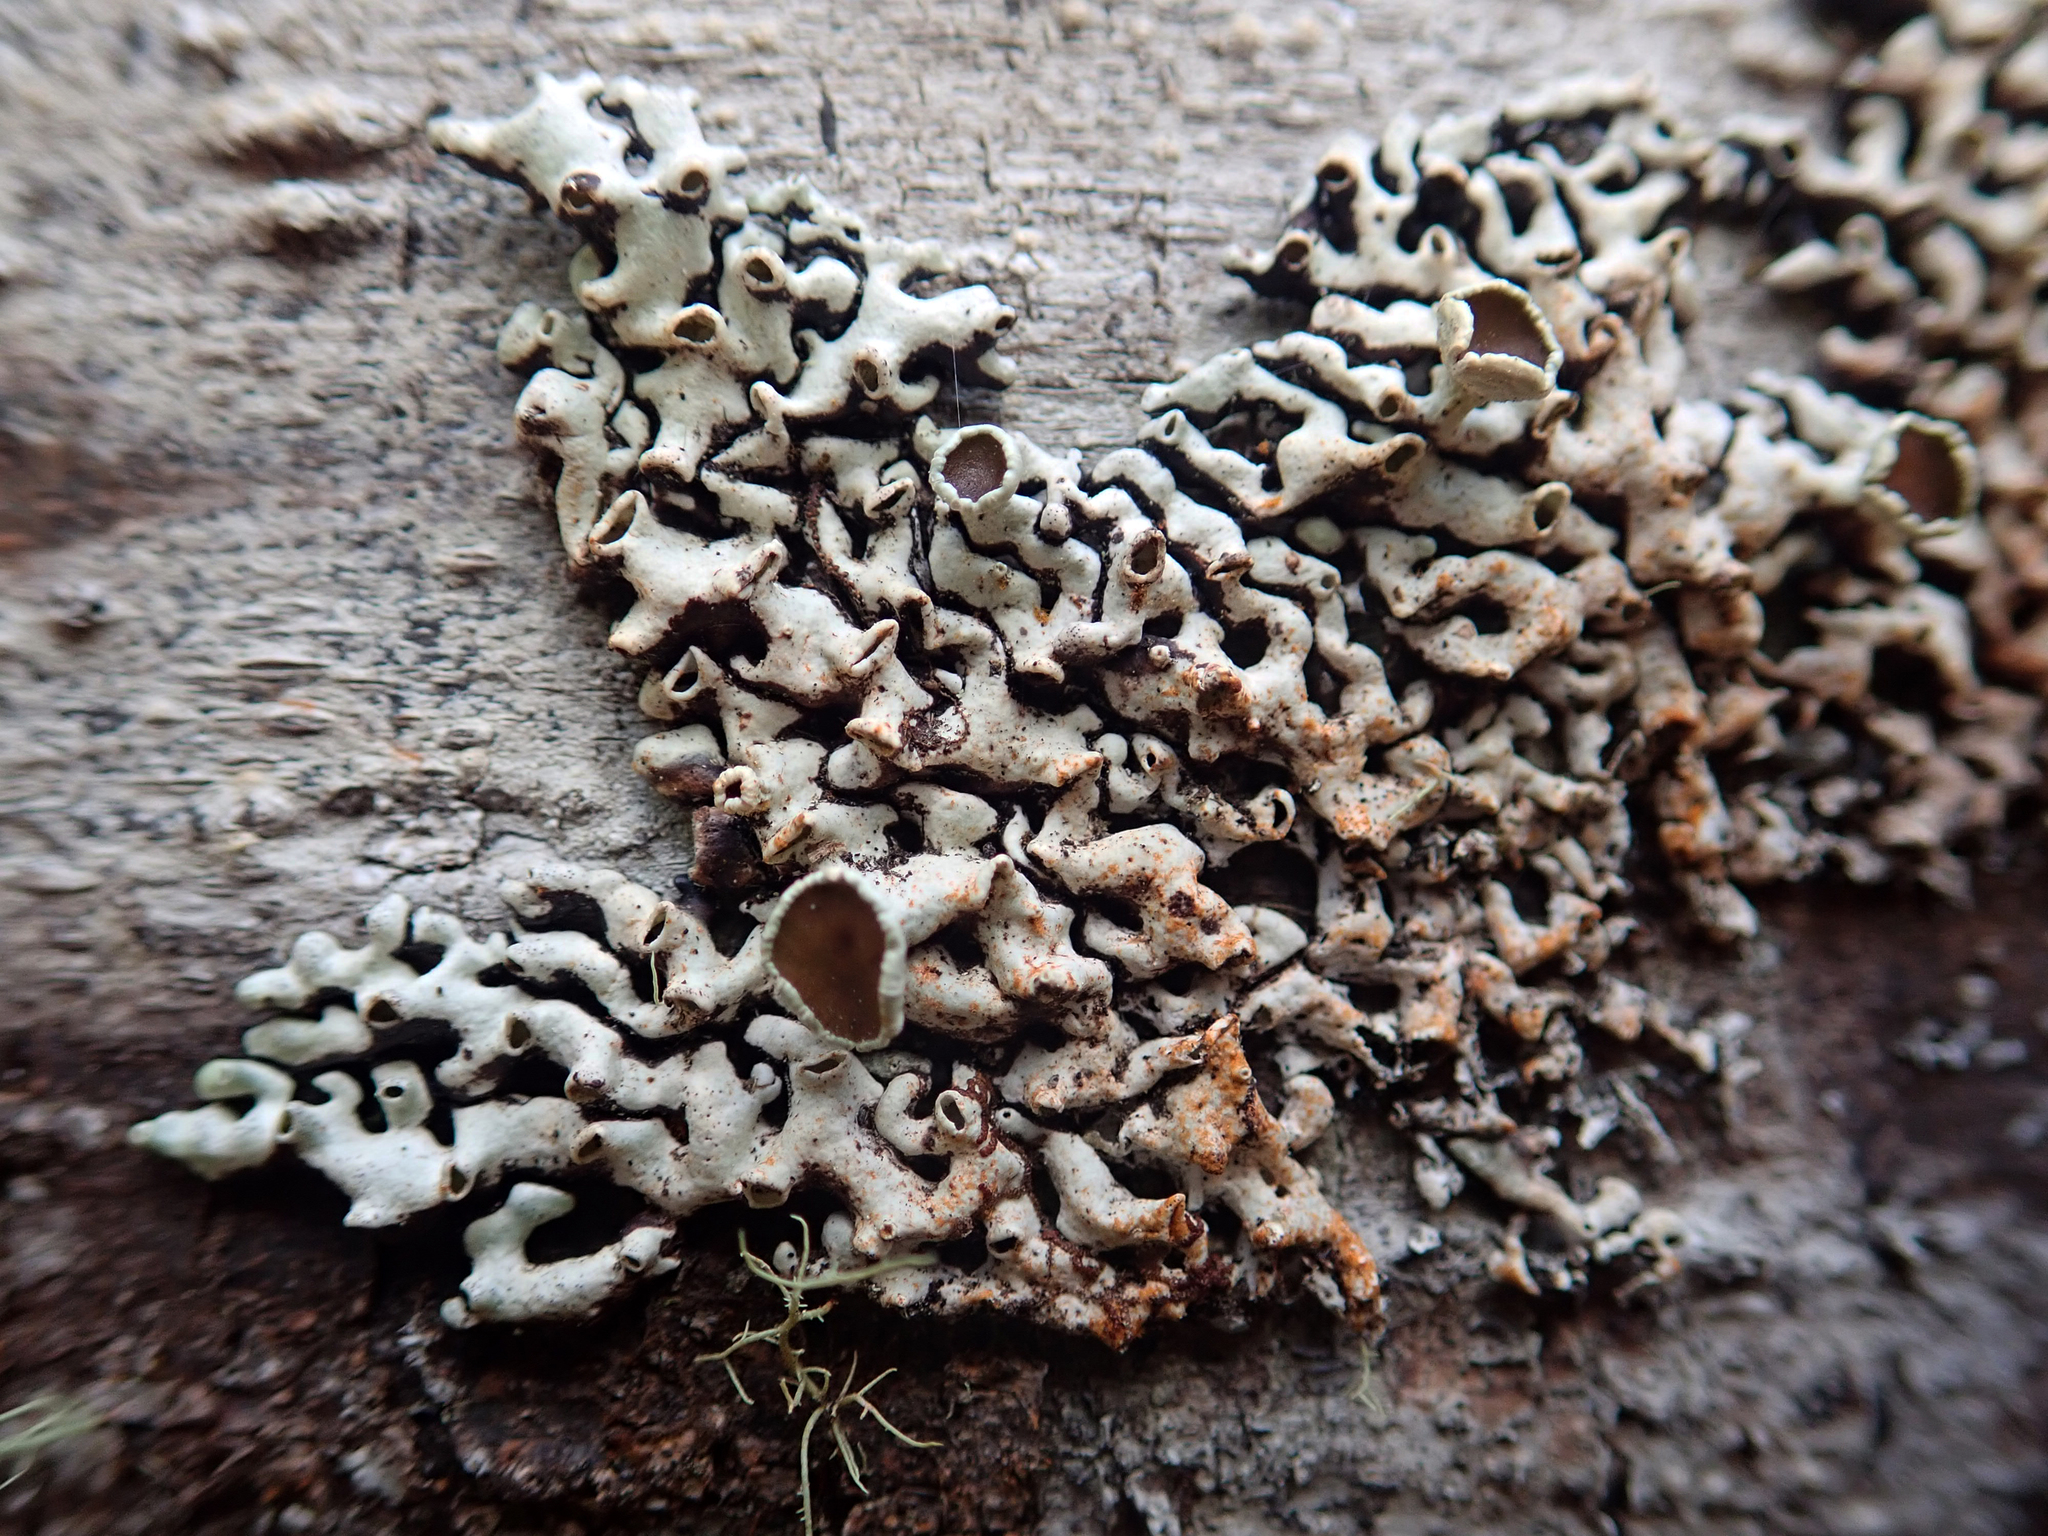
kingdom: Fungi
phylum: Ascomycota
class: Lecanoromycetes
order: Lecanorales
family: Parmeliaceae
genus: Menegazzia
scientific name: Menegazzia aucklandica
